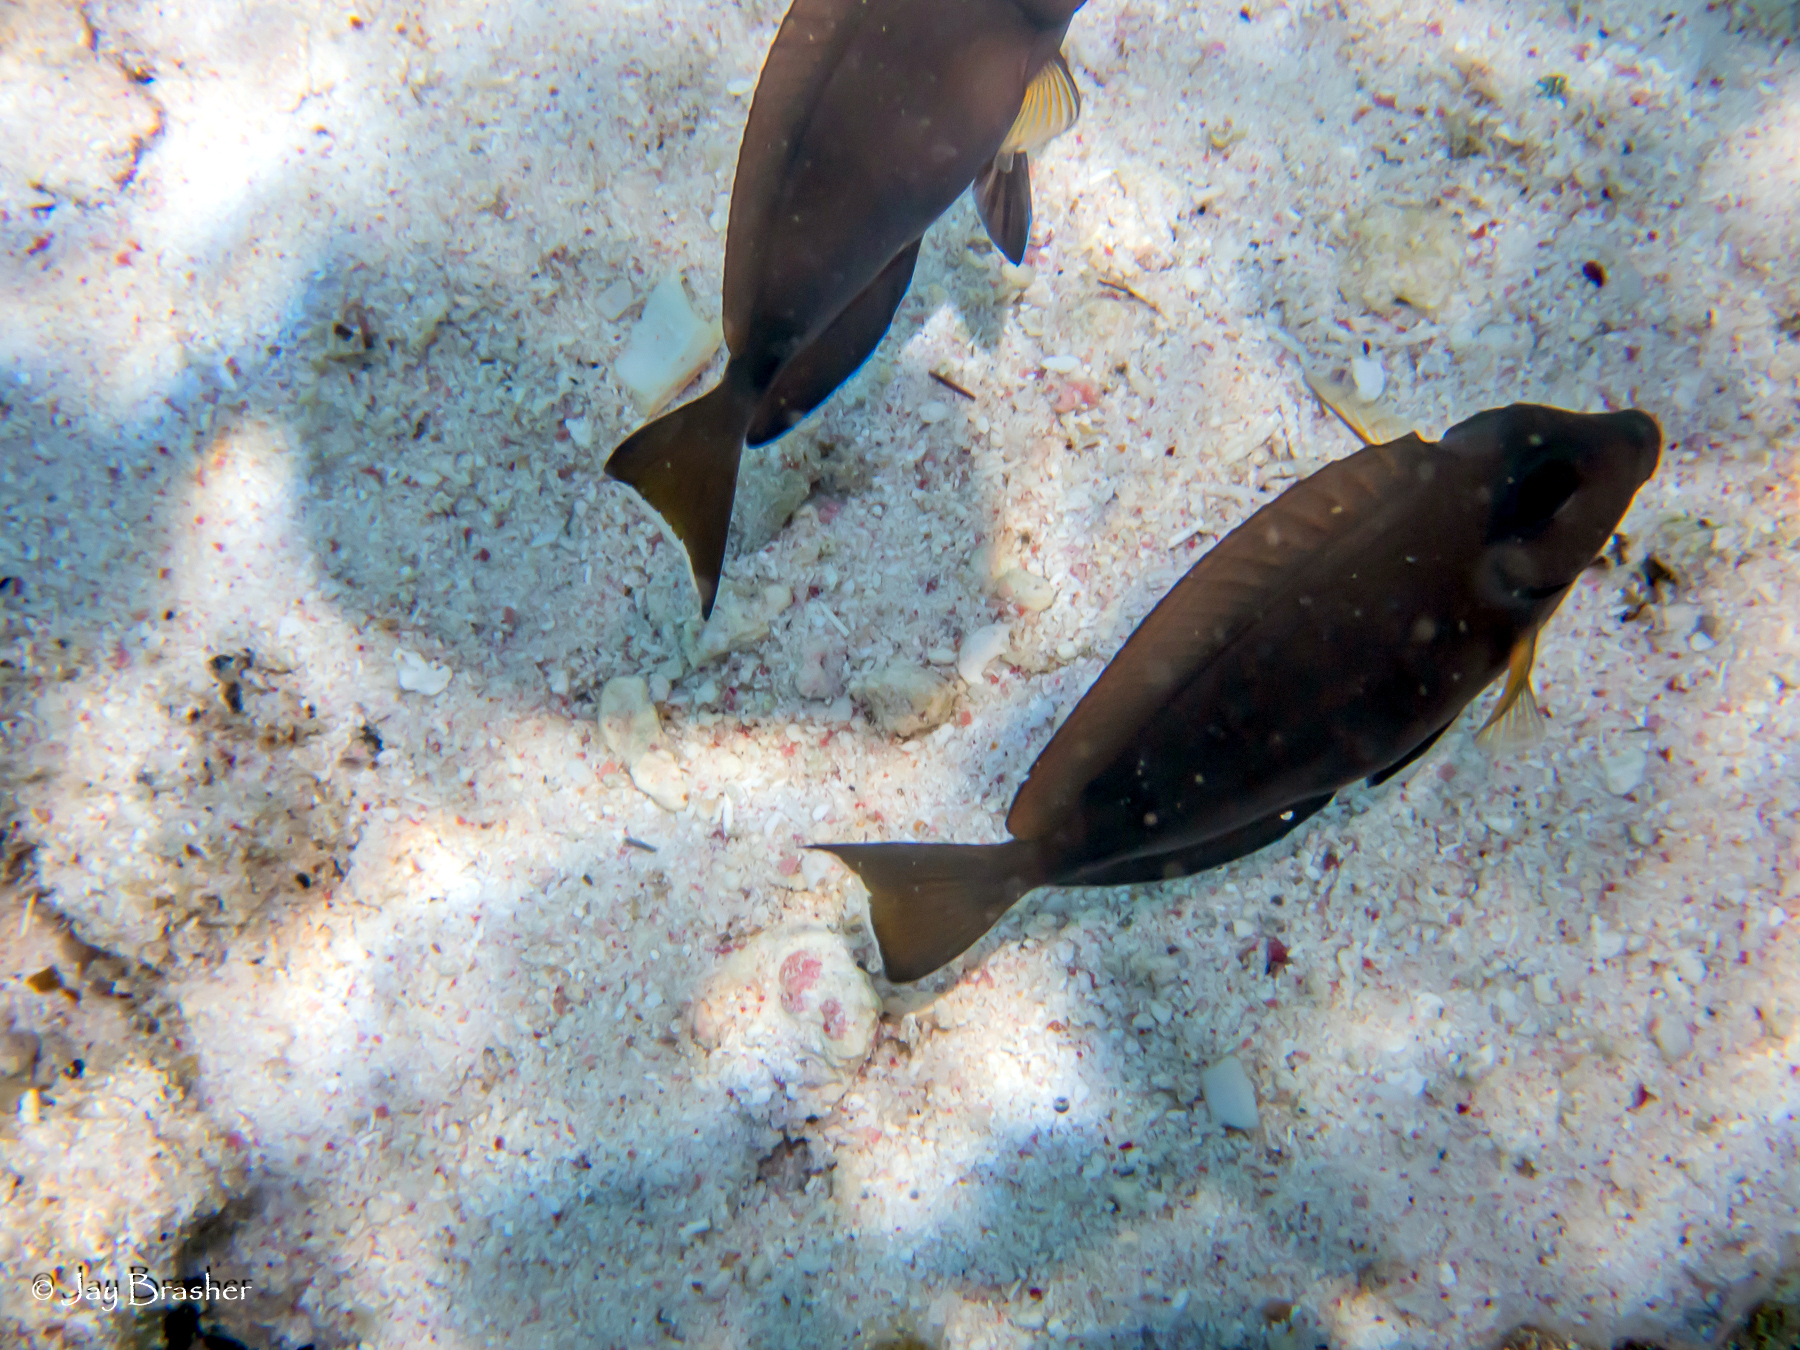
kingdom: Animalia
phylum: Chordata
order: Perciformes
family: Acanthuridae
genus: Acanthurus
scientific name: Acanthurus bahianus
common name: Ocean surgeon
